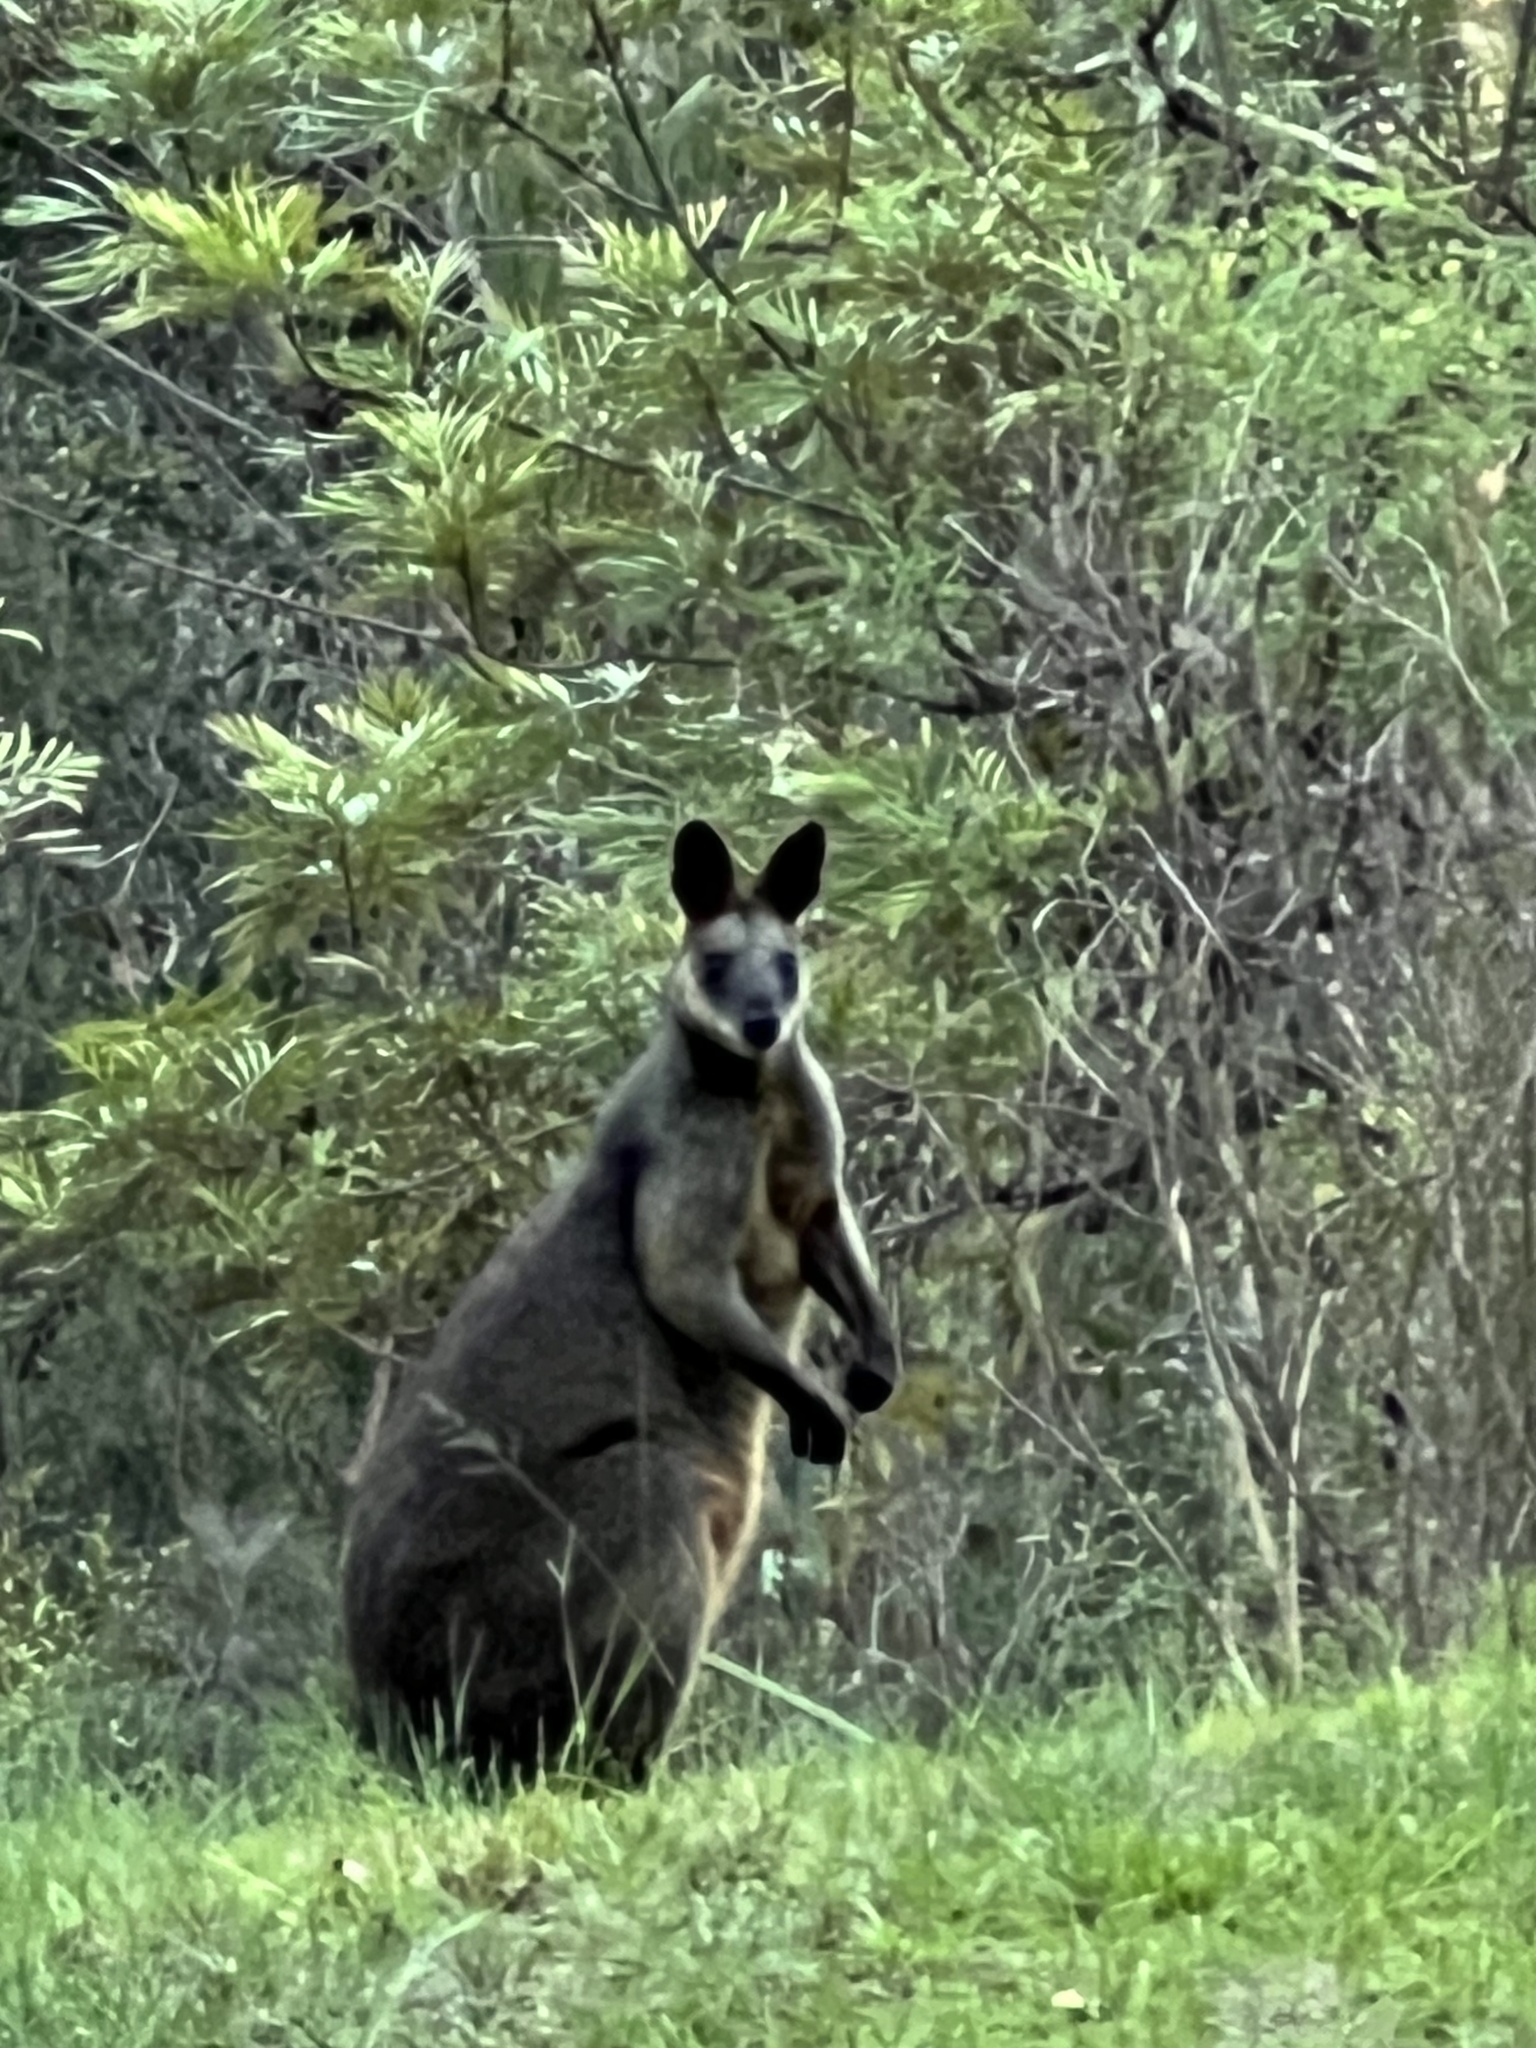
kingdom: Animalia
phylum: Chordata
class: Mammalia
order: Diprotodontia
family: Macropodidae
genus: Wallabia
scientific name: Wallabia bicolor
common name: Swamp wallaby
